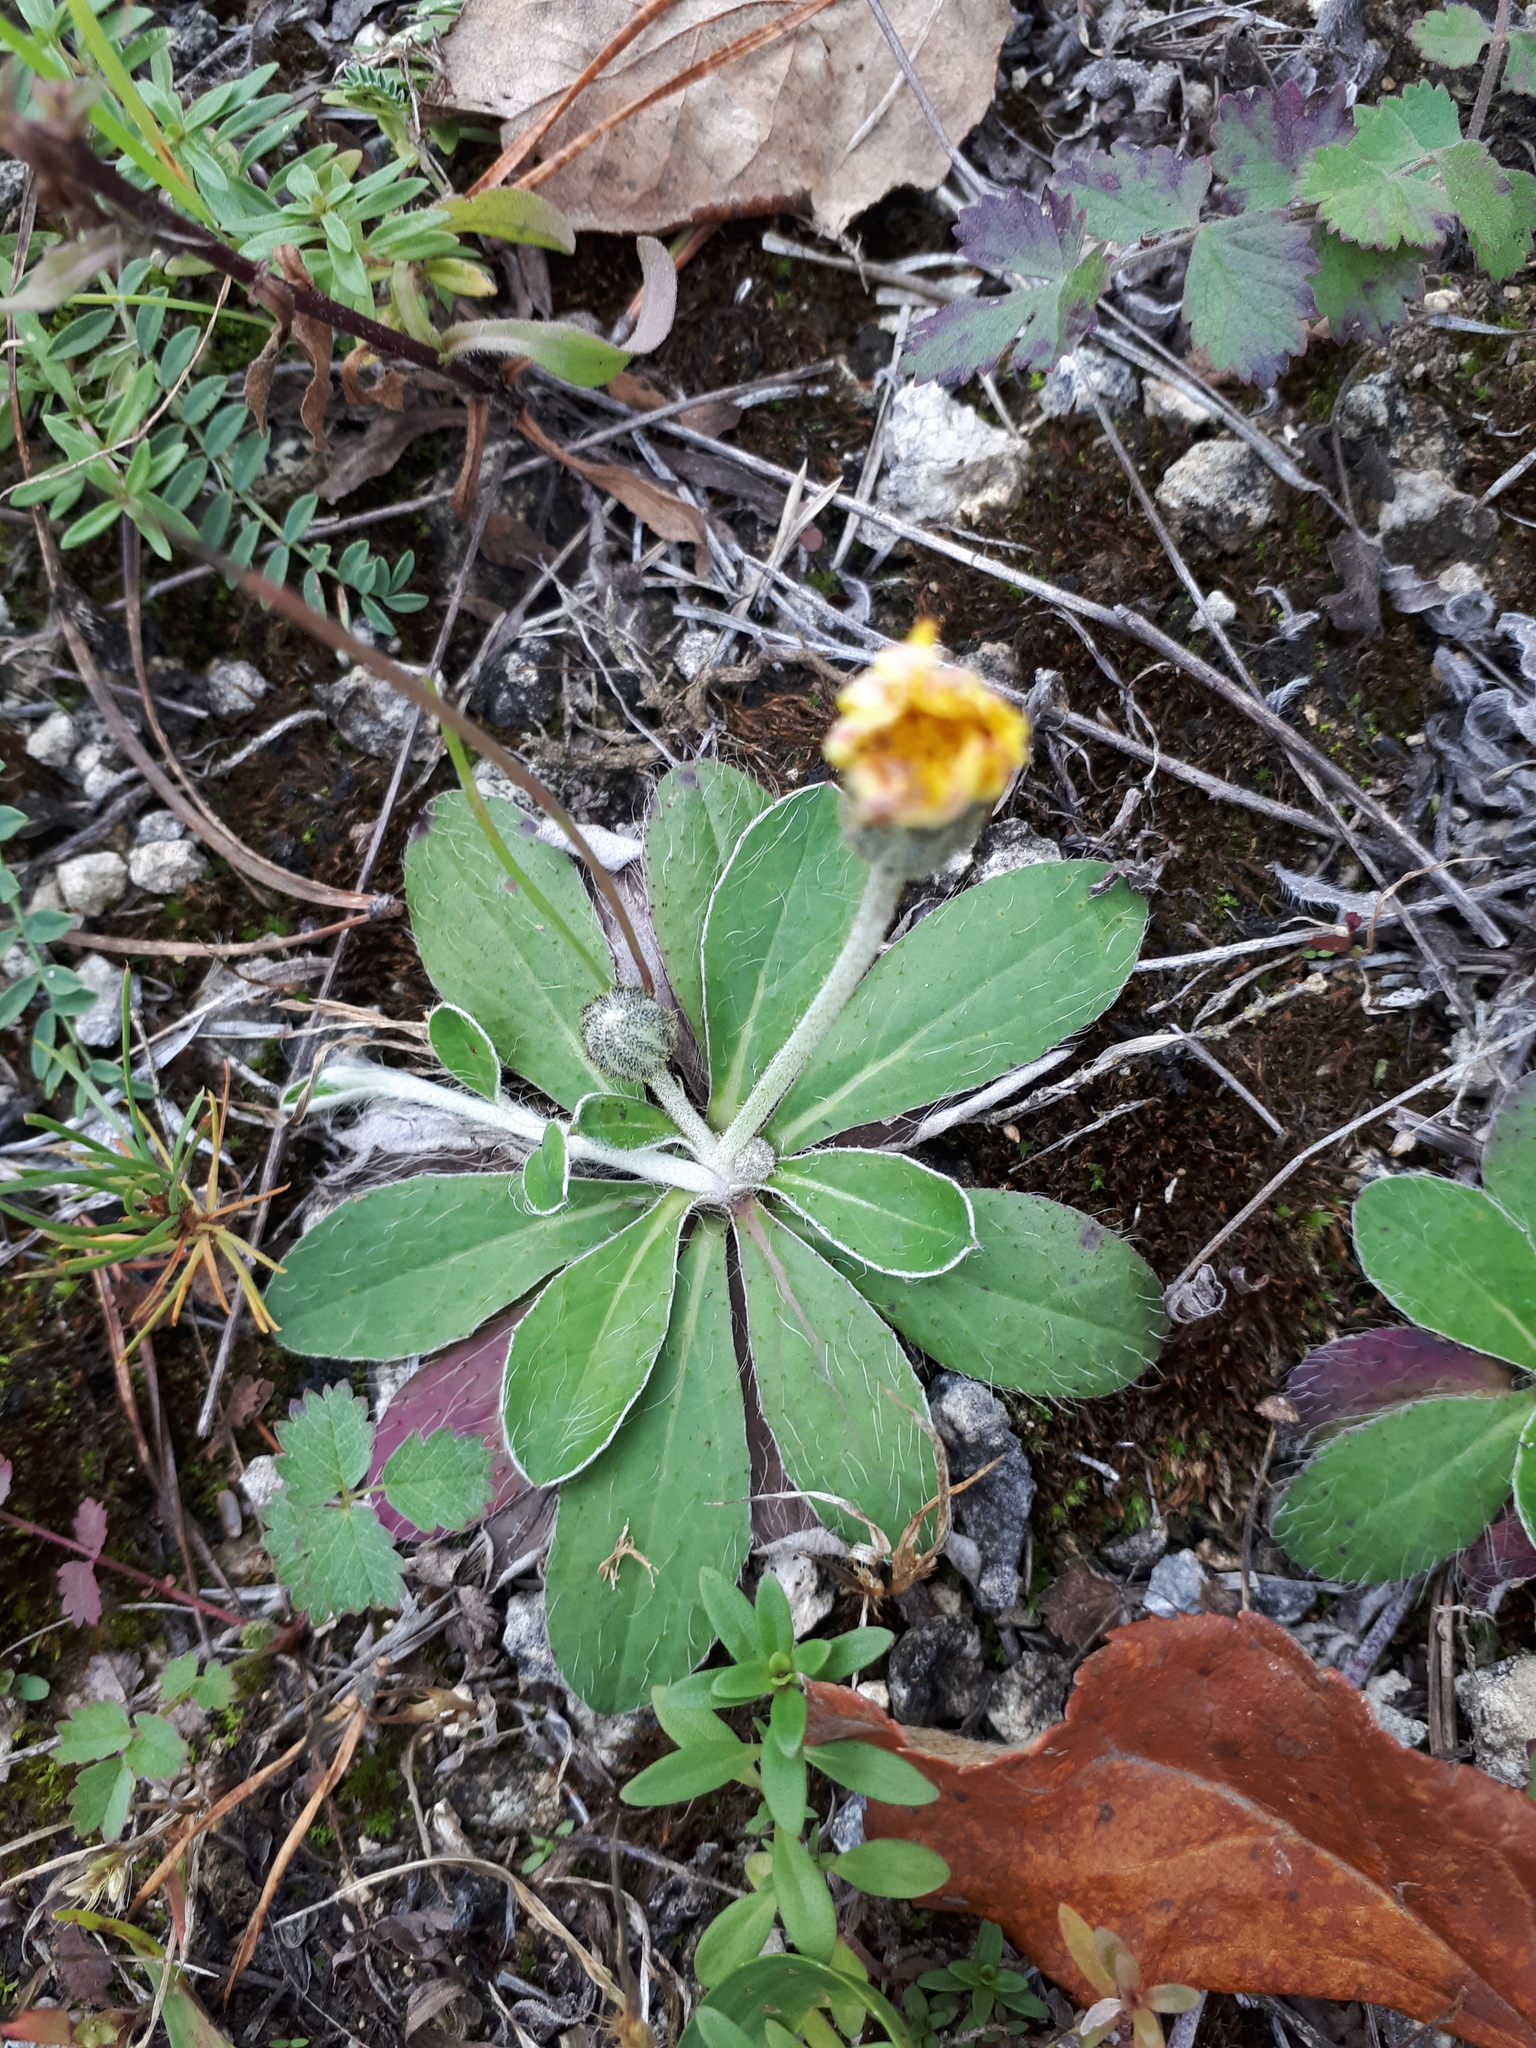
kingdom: Plantae
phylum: Tracheophyta
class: Magnoliopsida
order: Asterales
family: Asteraceae
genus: Pilosella
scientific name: Pilosella officinarum
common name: Mouse-ear hawkweed
